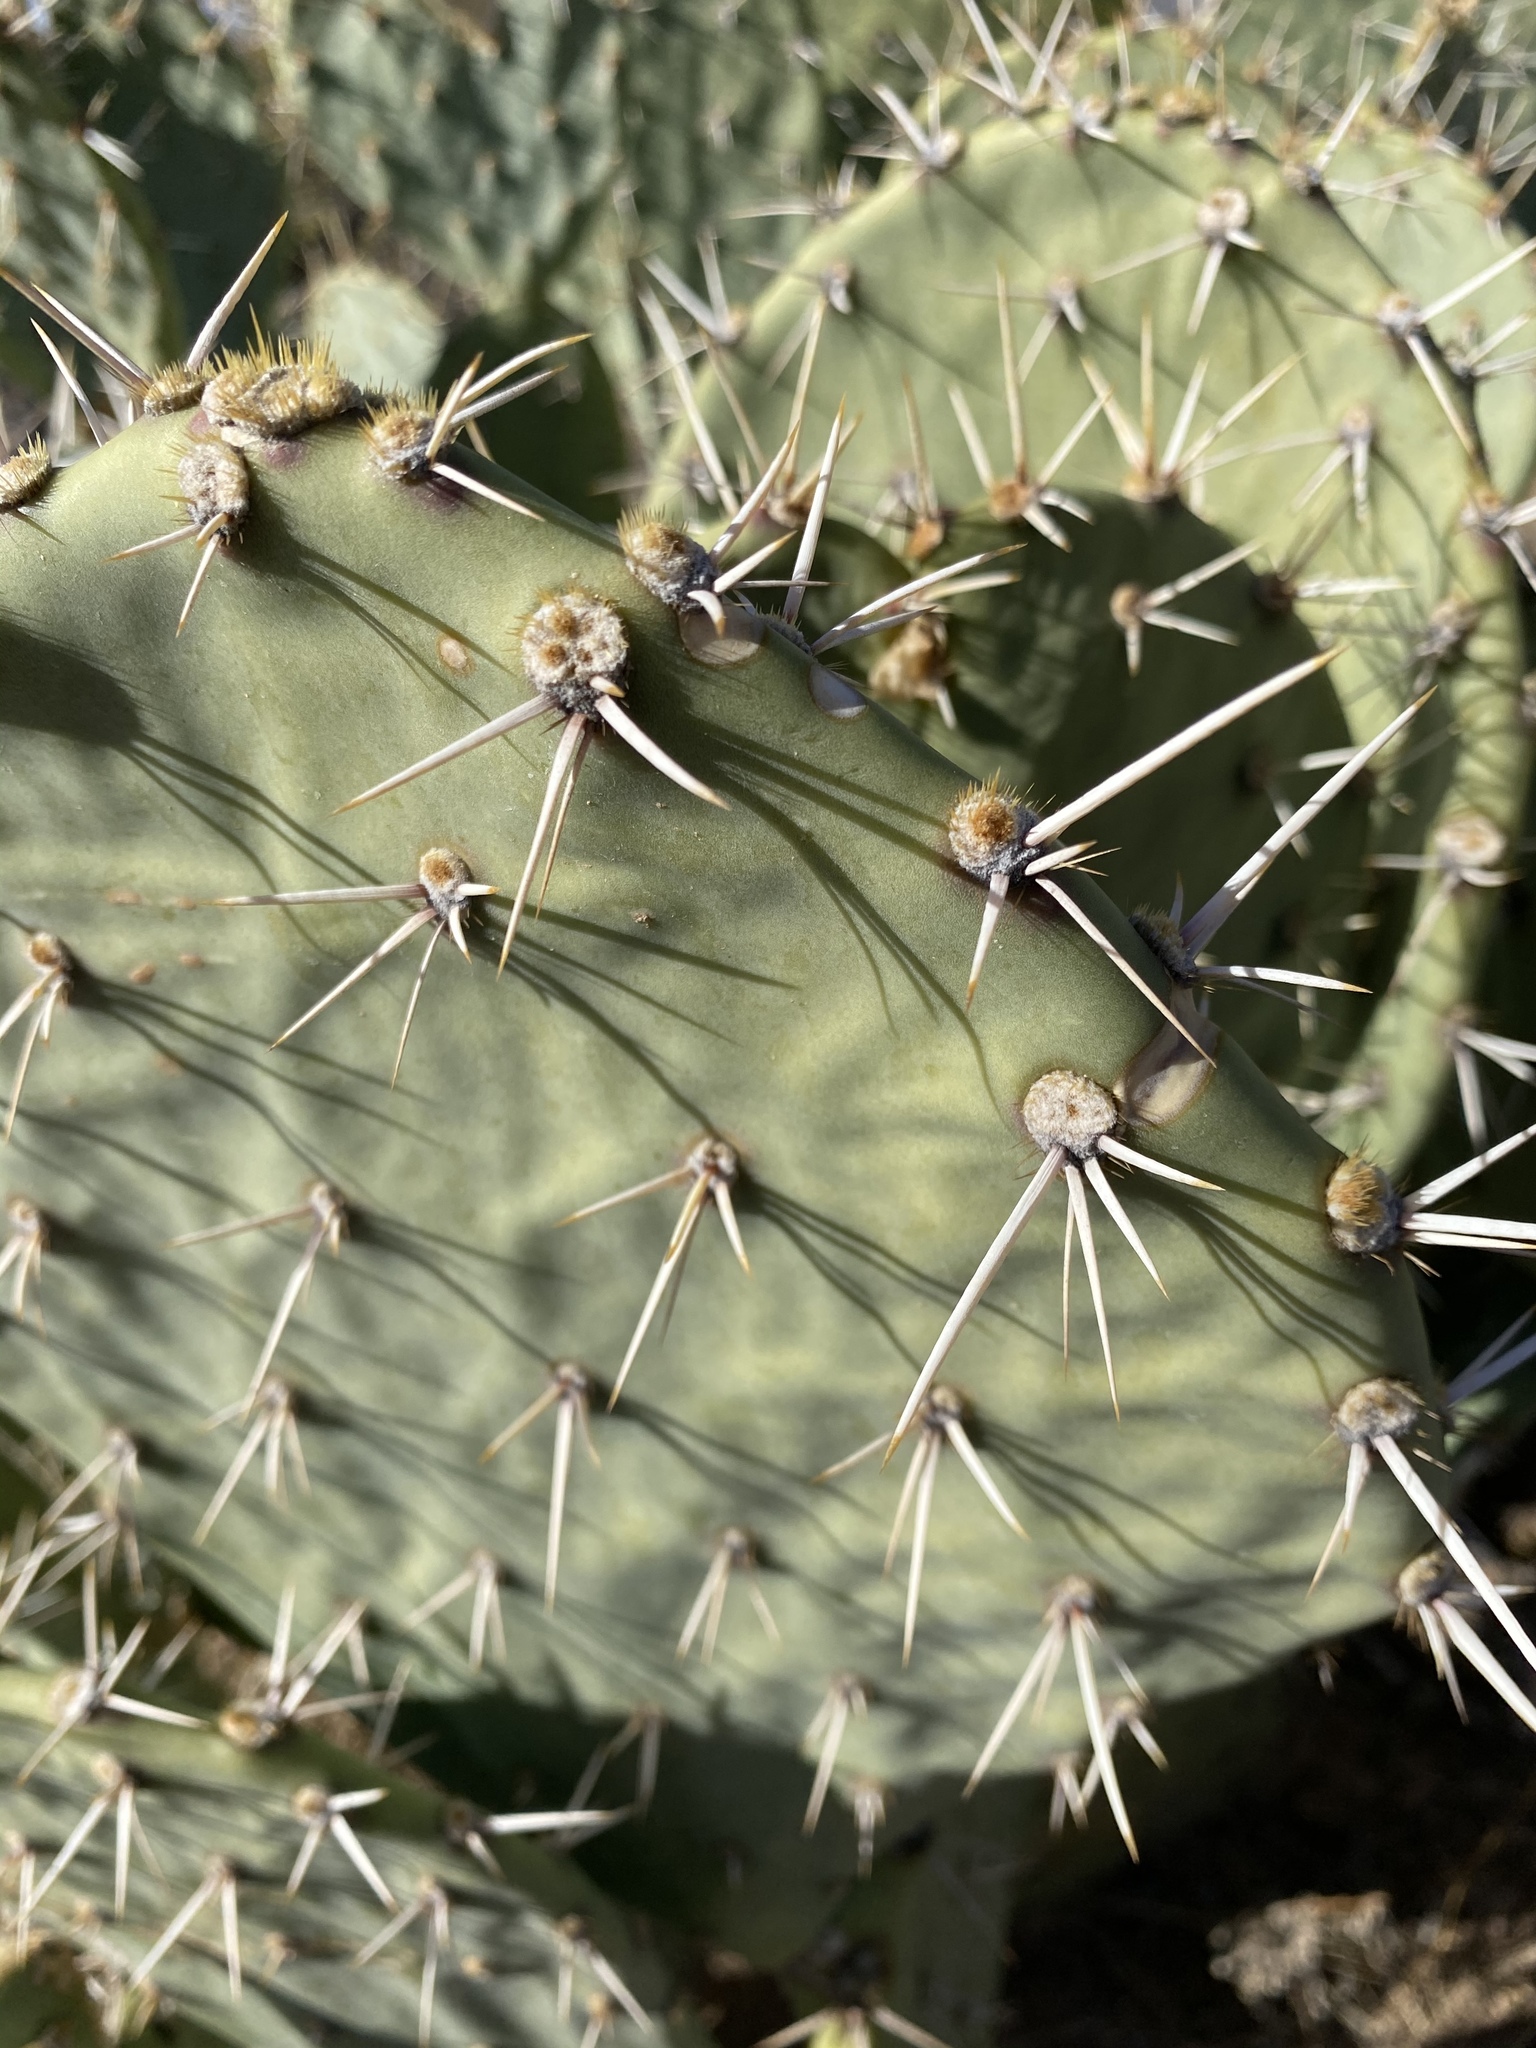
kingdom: Plantae
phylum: Tracheophyta
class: Magnoliopsida
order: Caryophyllales
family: Cactaceae
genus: Opuntia
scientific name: Opuntia engelmannii
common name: Cactus-apple
